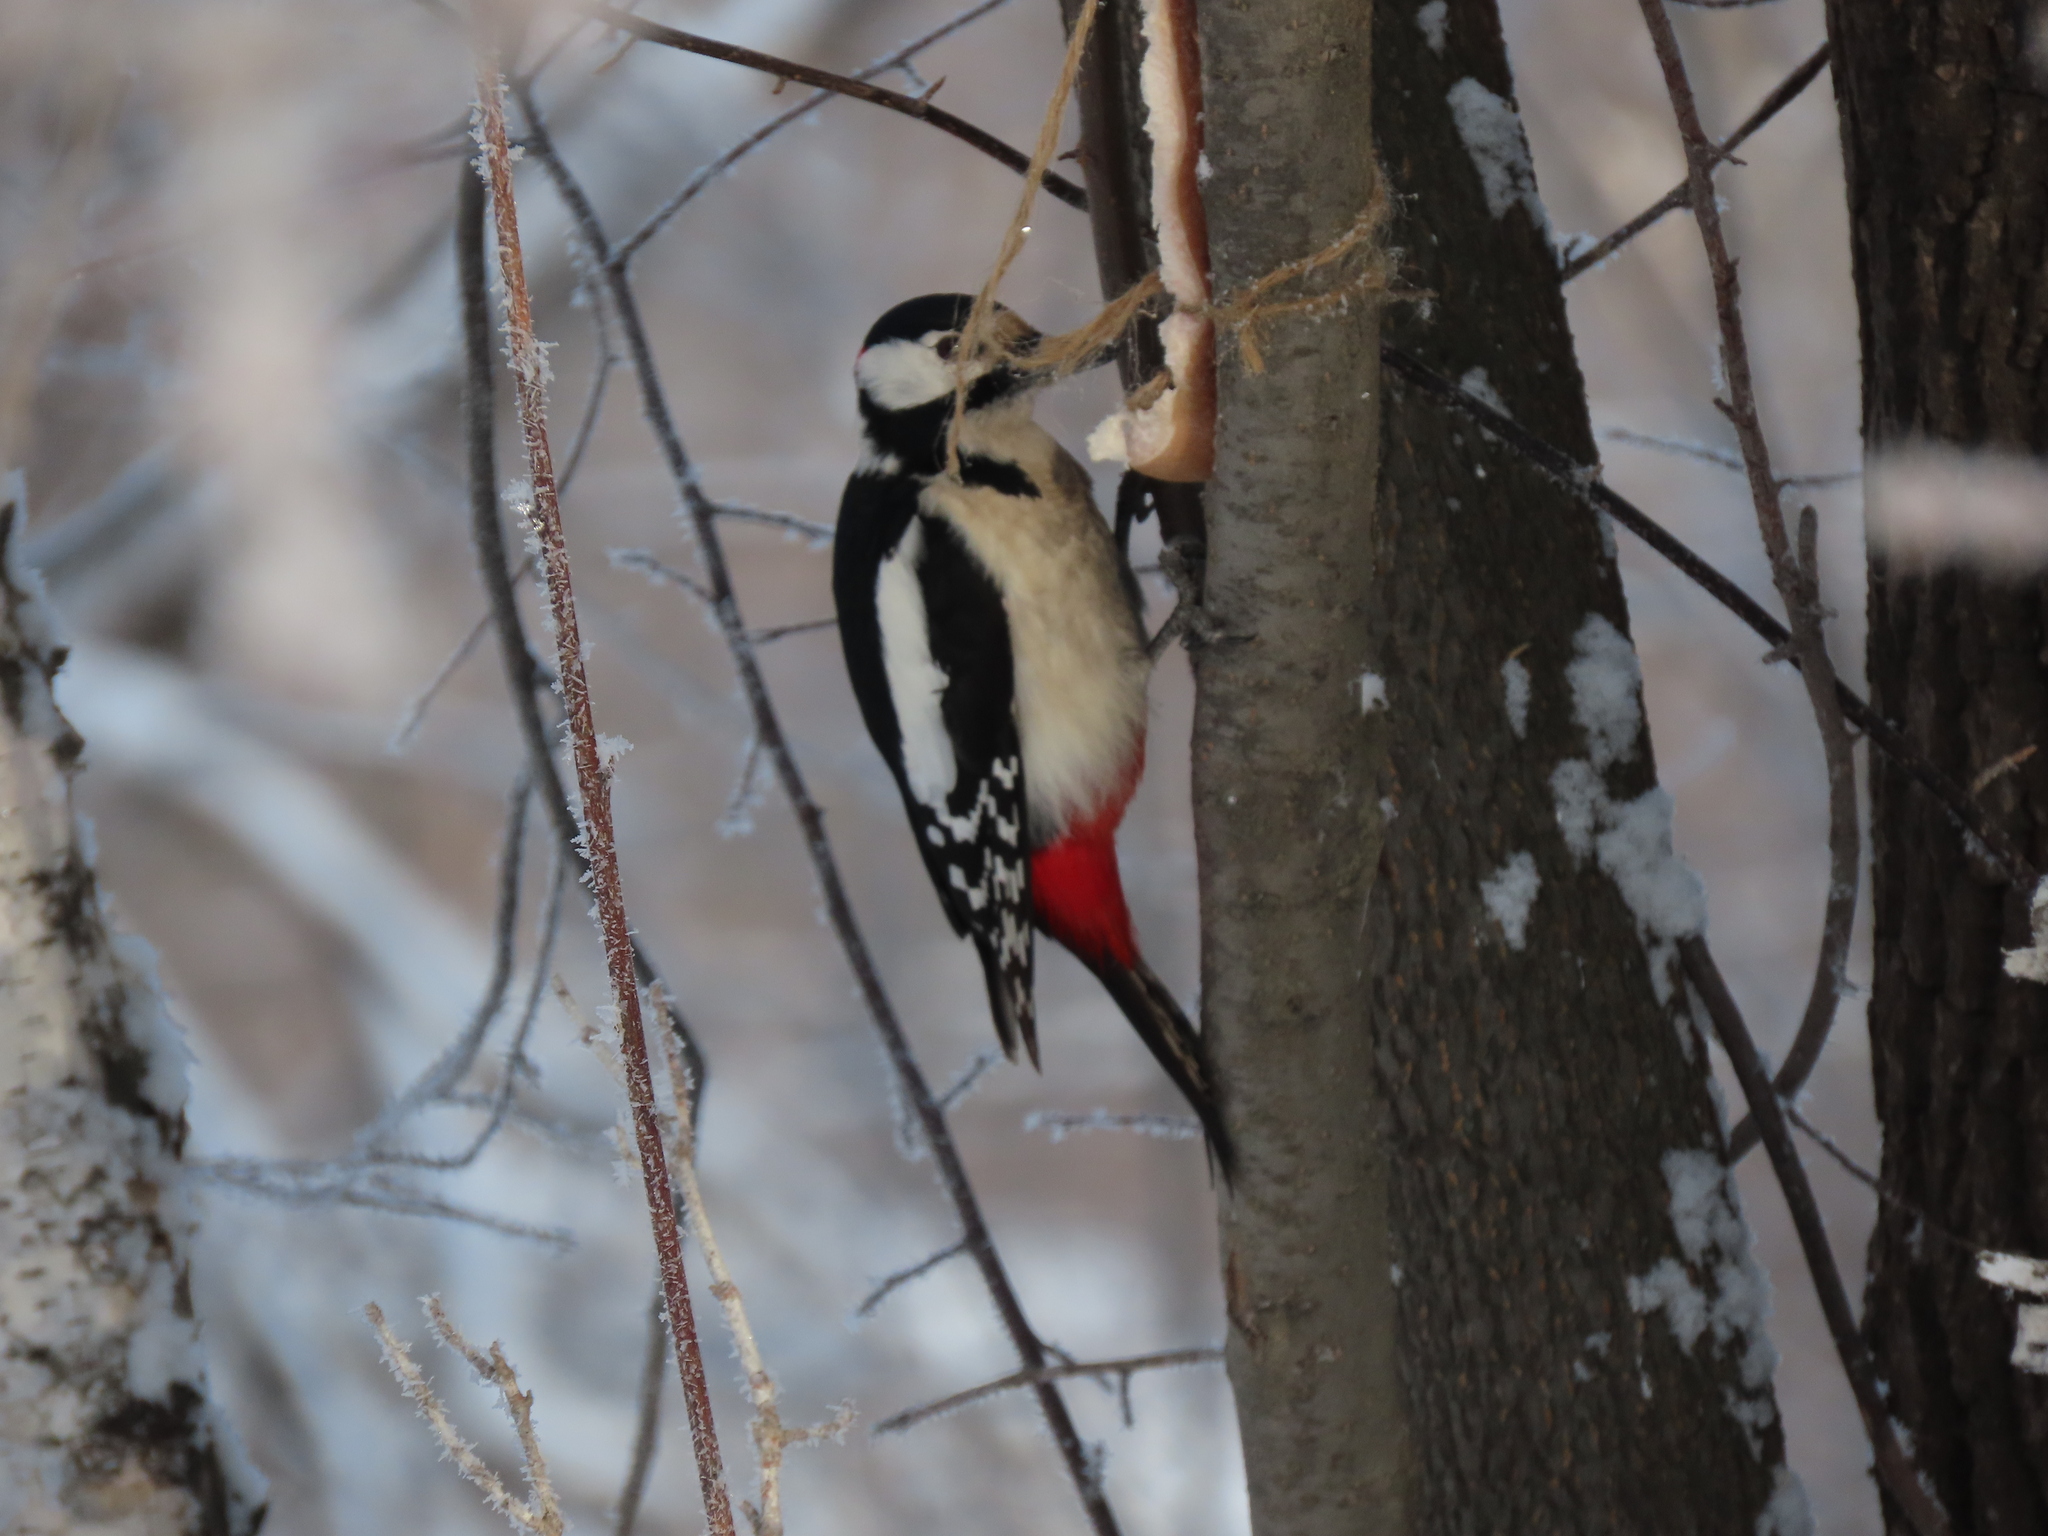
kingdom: Animalia
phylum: Chordata
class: Aves
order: Piciformes
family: Picidae
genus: Dendrocopos
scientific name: Dendrocopos major
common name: Great spotted woodpecker
